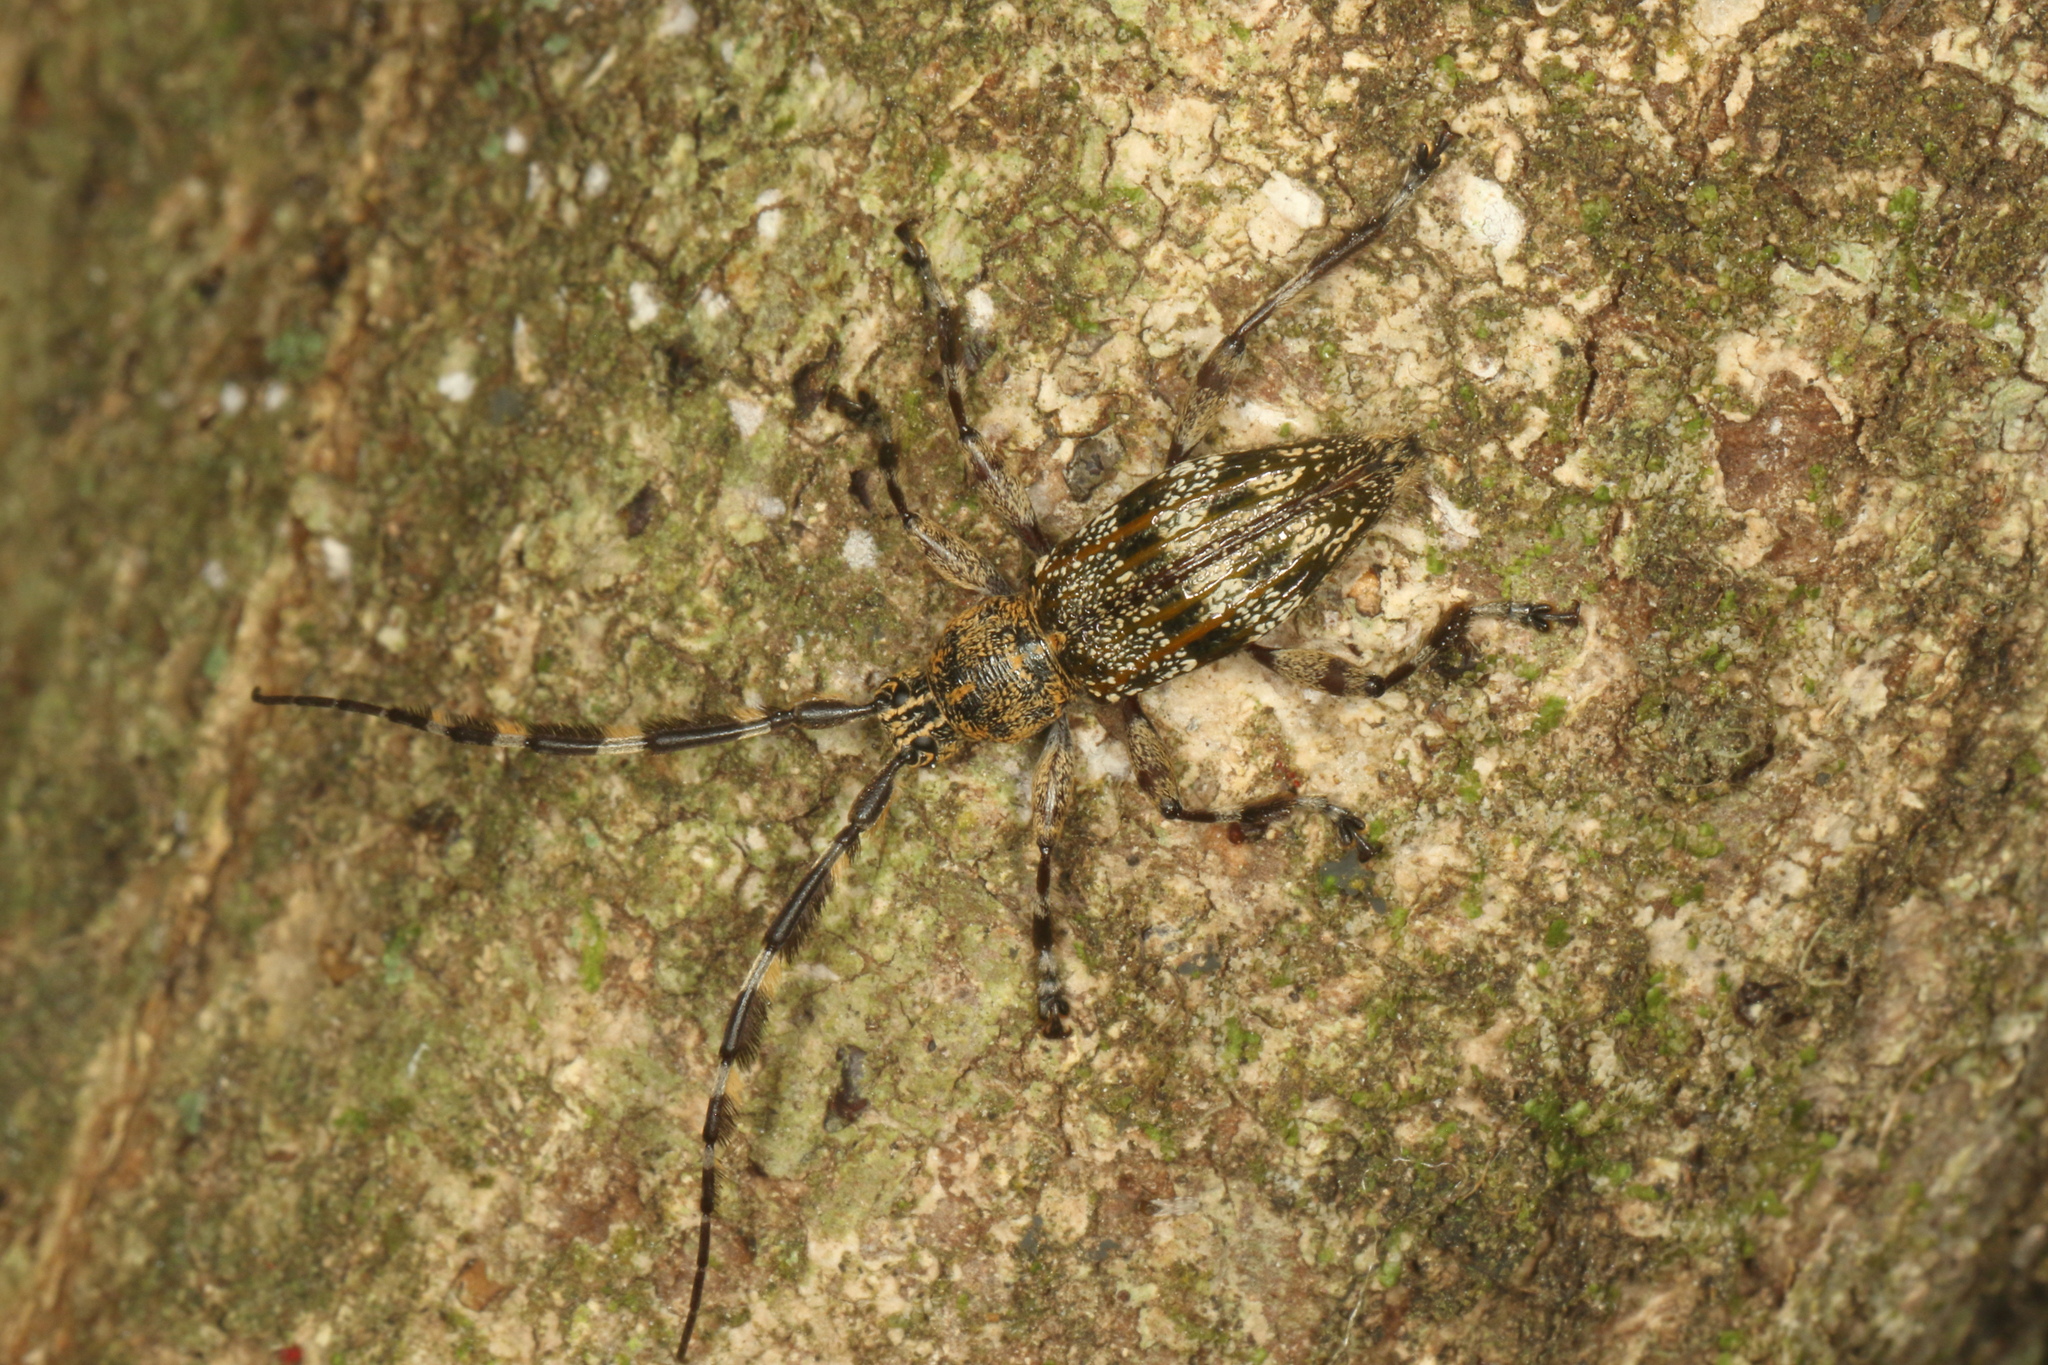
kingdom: Animalia
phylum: Arthropoda
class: Insecta
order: Coleoptera
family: Cerambycidae
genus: Hexatricha
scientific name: Hexatricha pulverulenta
